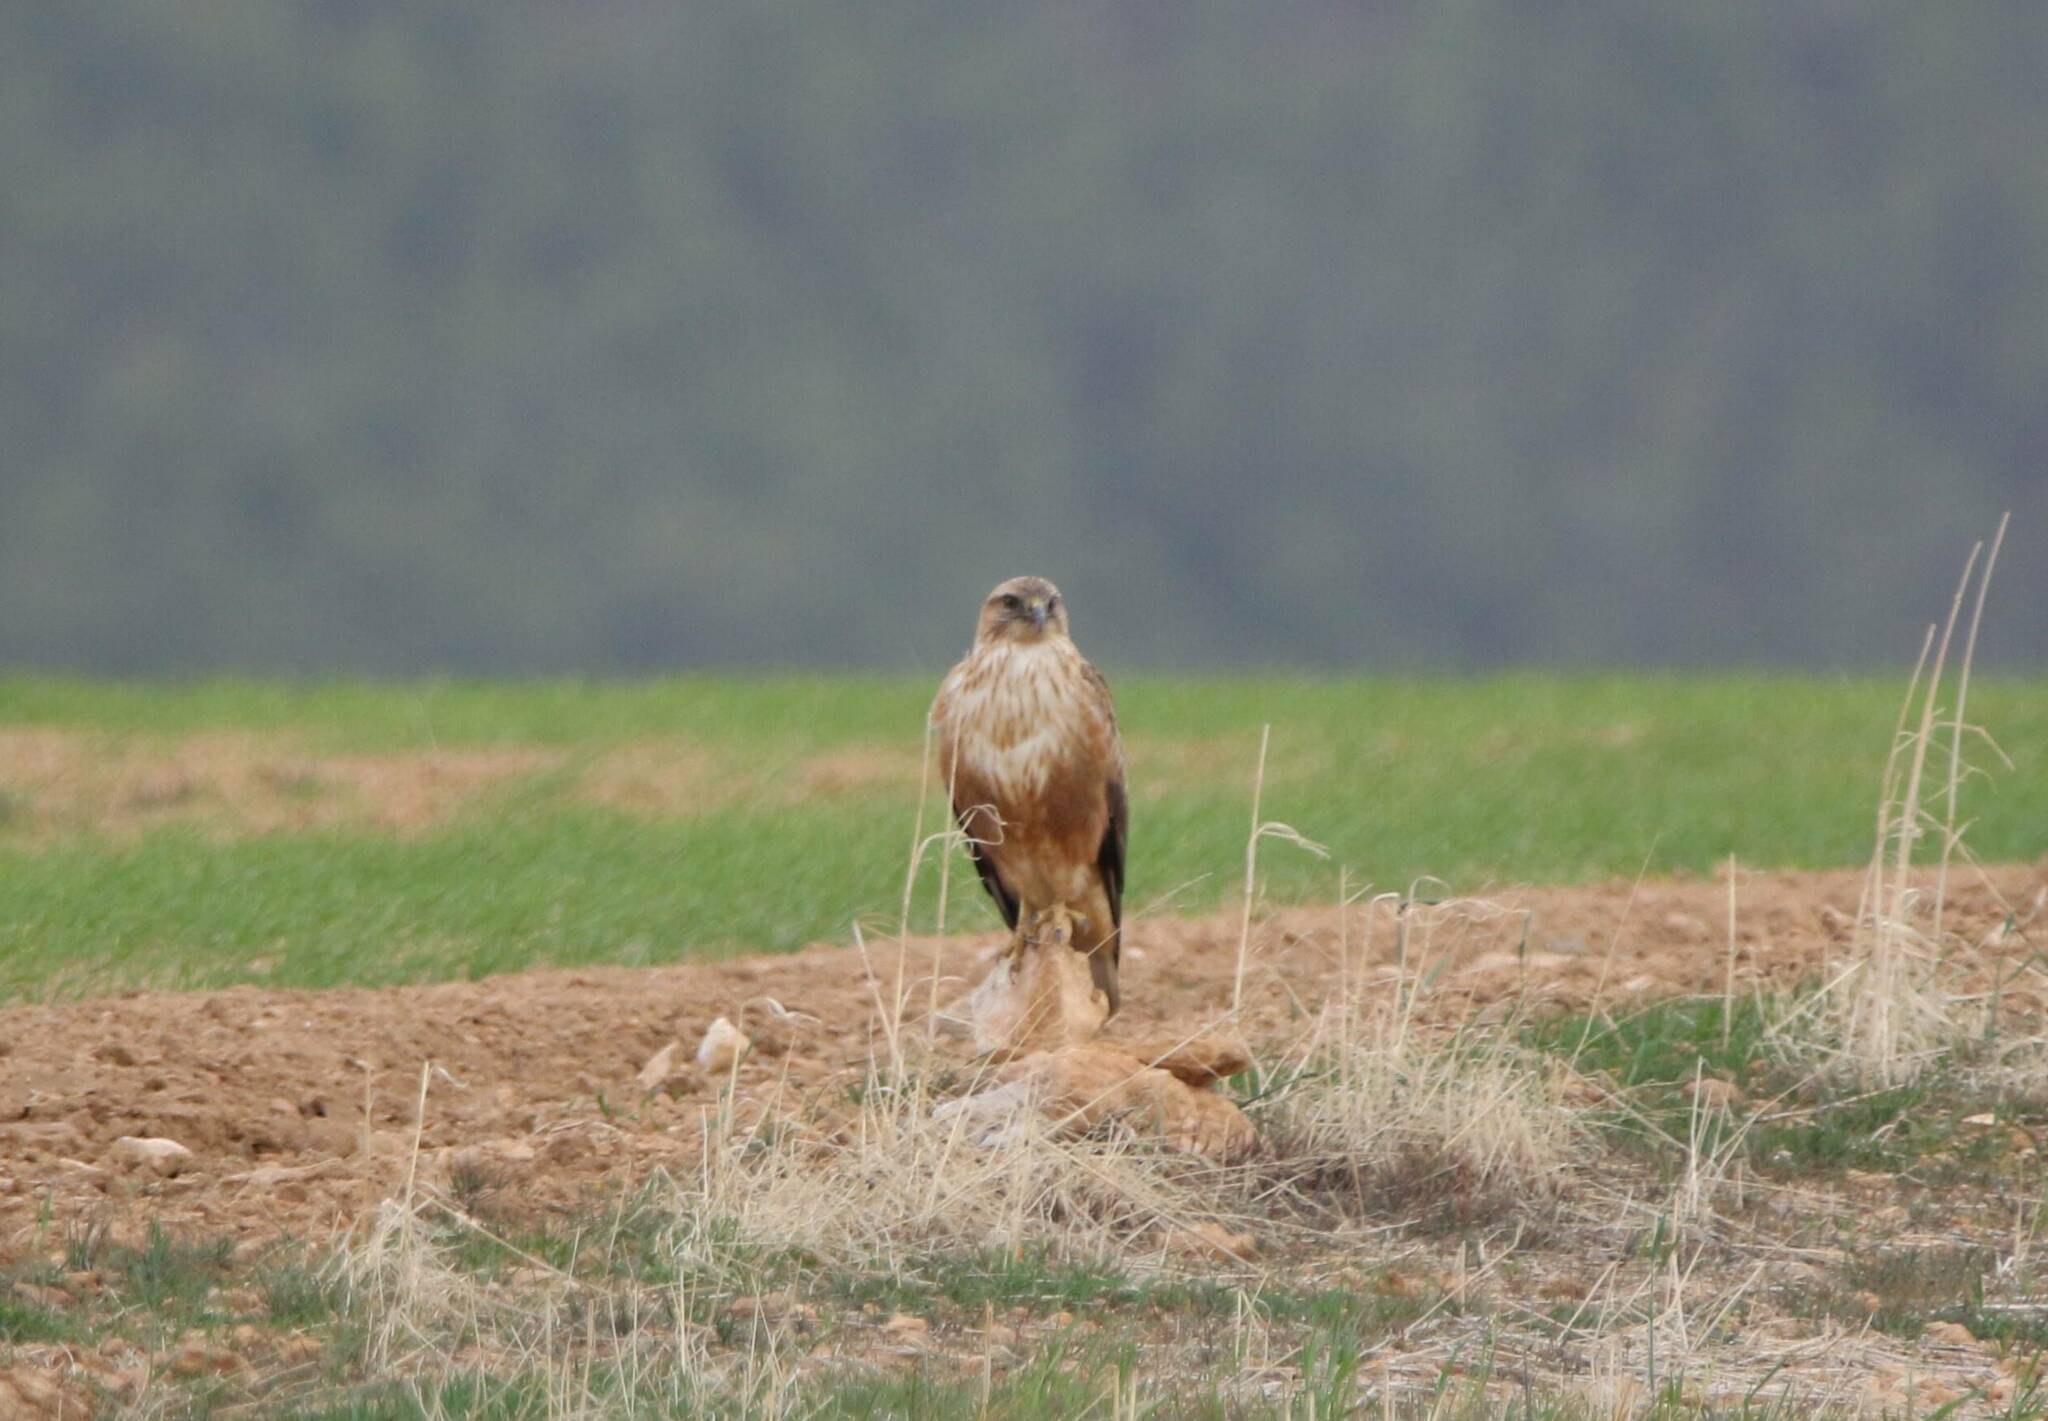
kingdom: Animalia
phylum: Chordata
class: Aves
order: Accipitriformes
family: Accipitridae
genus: Buteo
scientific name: Buteo rufinus
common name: Long-legged buzzard
